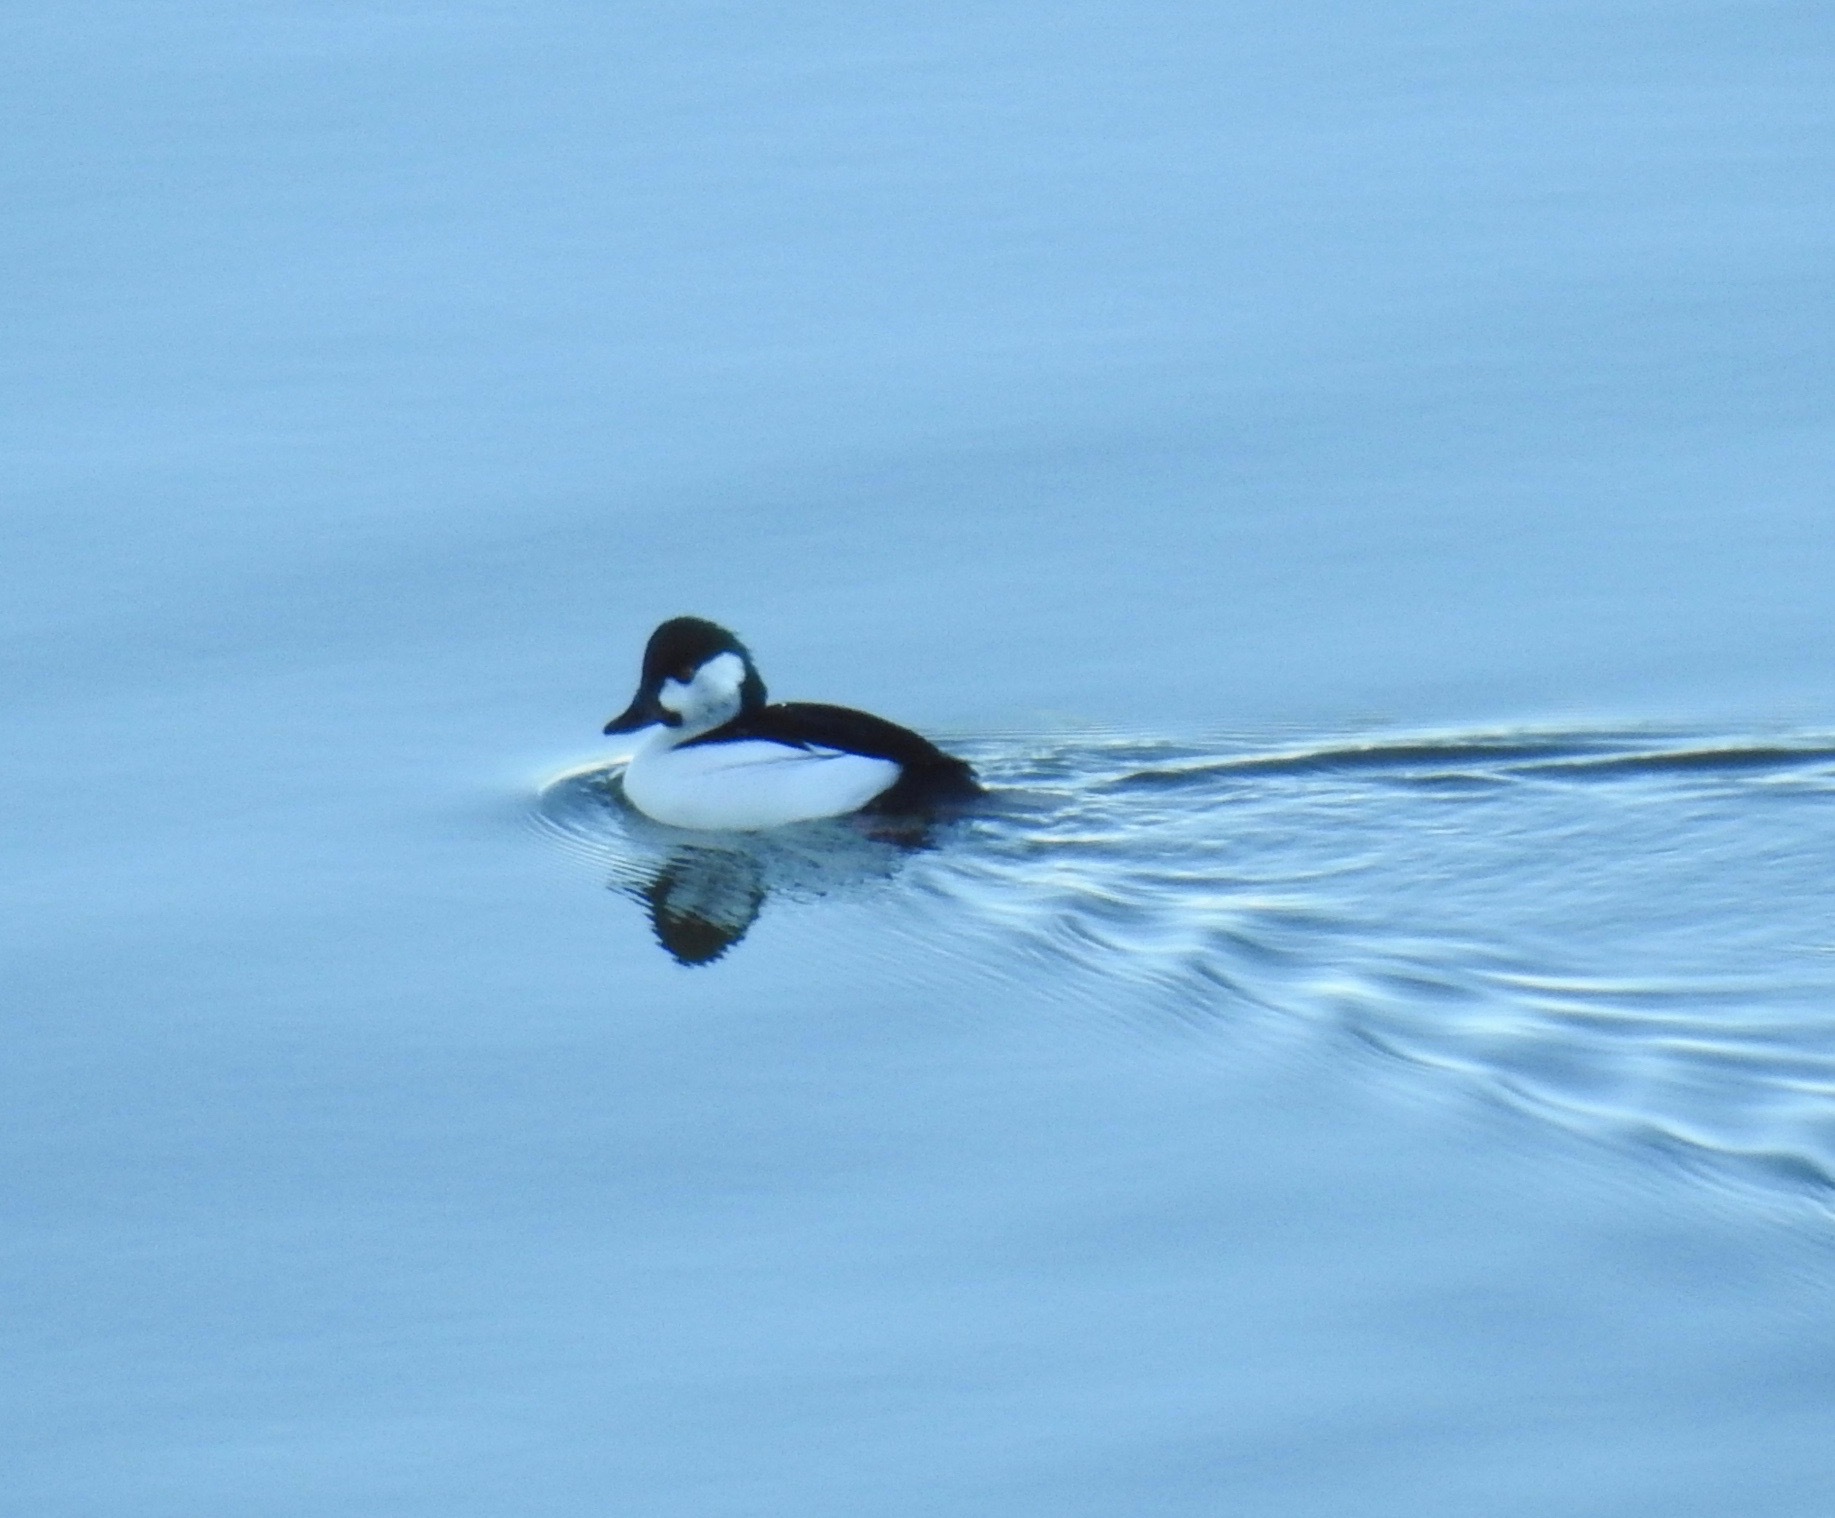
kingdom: Animalia
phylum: Chordata
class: Aves
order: Anseriformes
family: Anatidae
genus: Bucephala
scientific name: Bucephala
